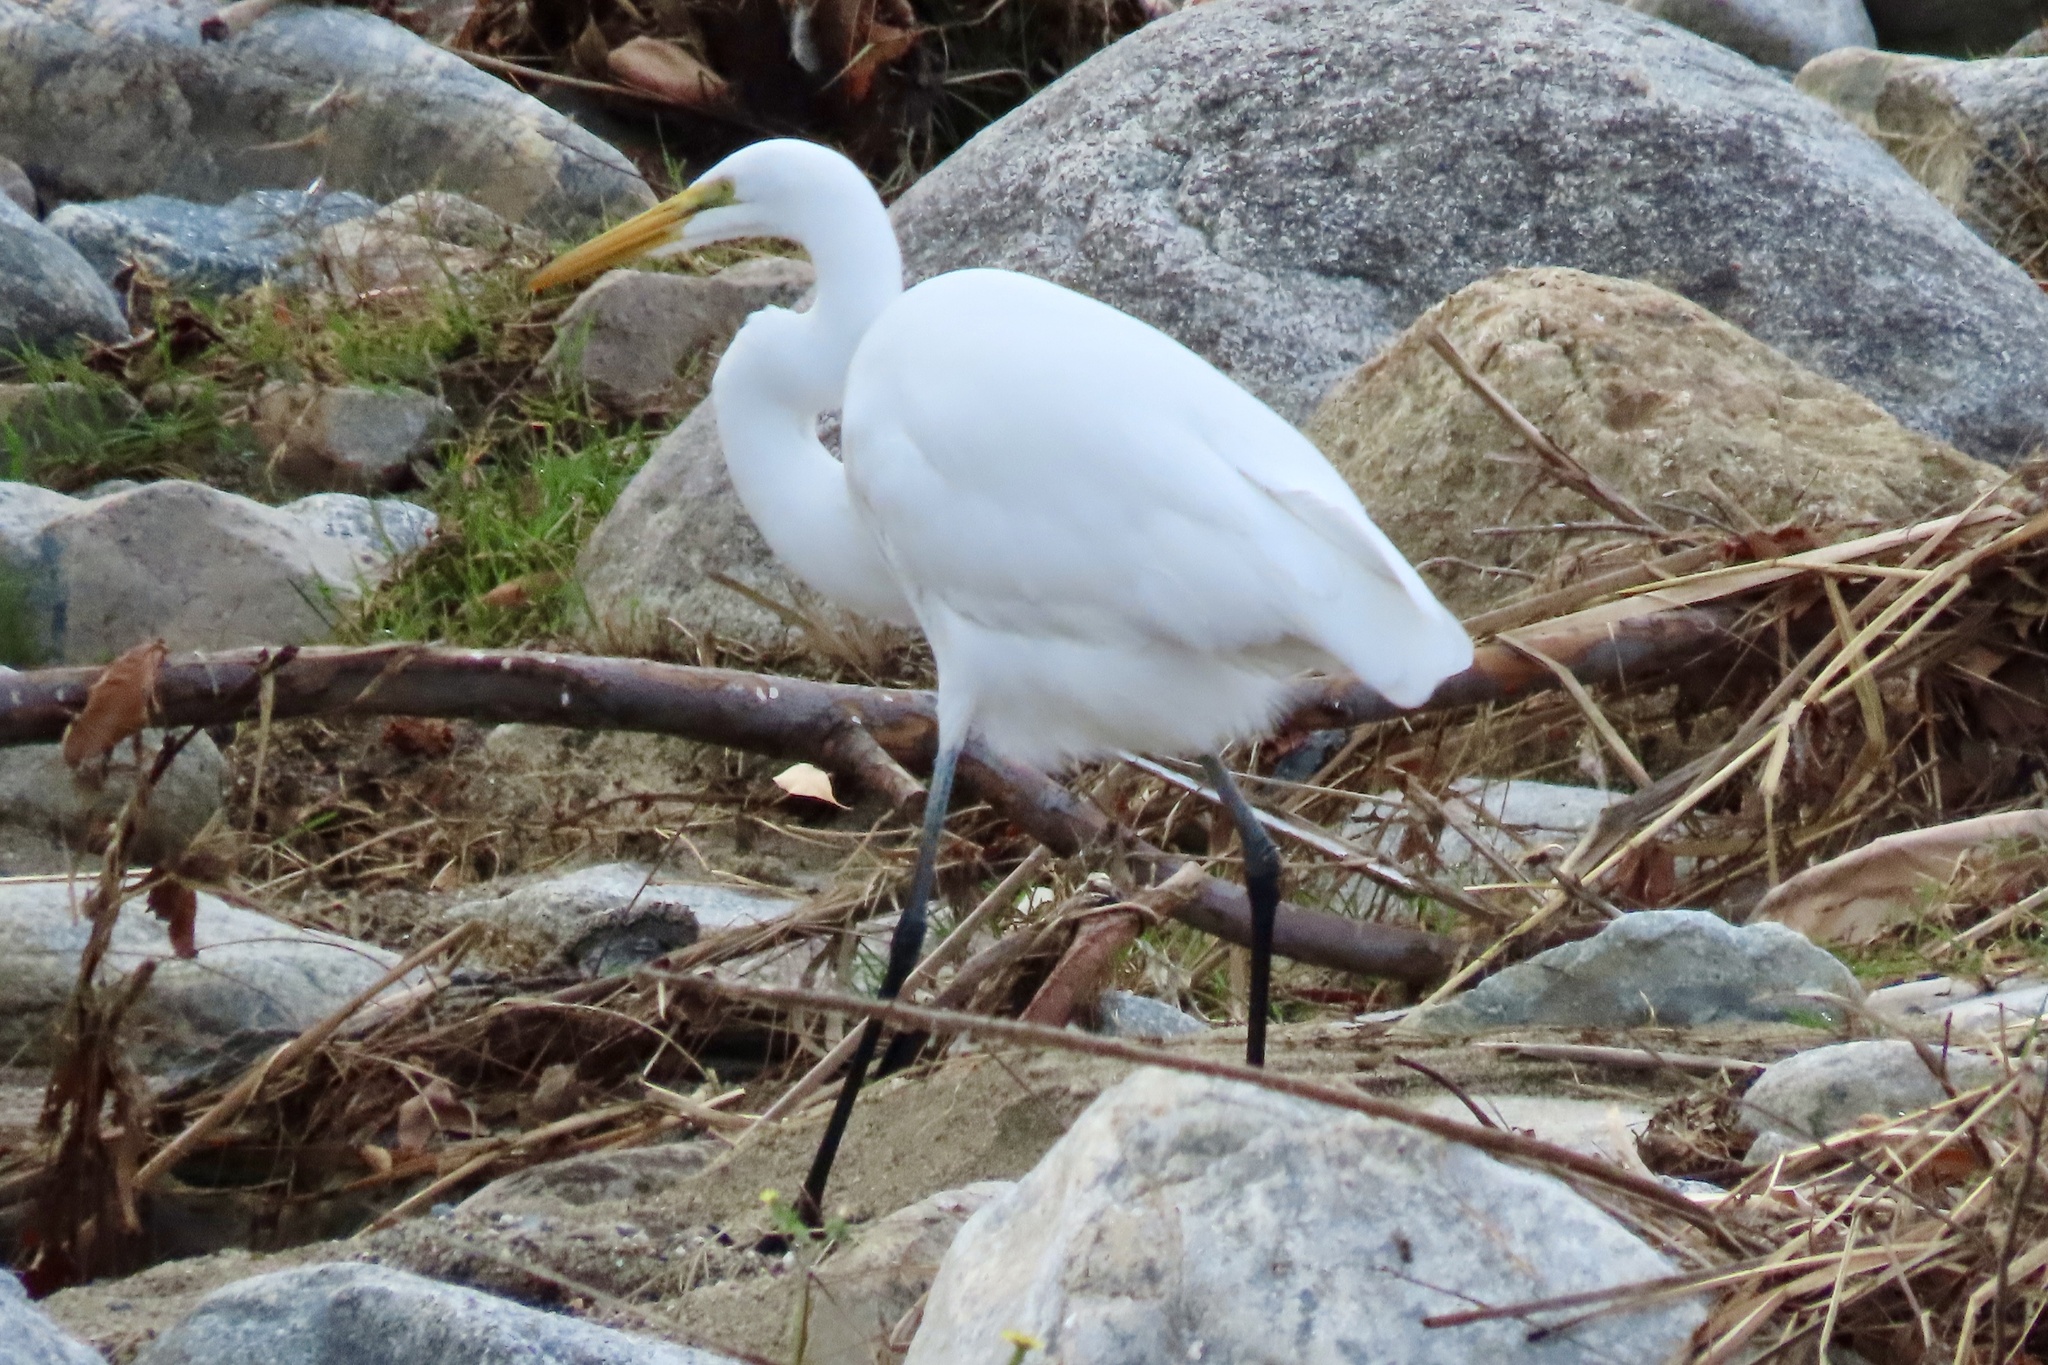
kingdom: Animalia
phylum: Chordata
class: Aves
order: Pelecaniformes
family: Ardeidae
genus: Ardea
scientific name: Ardea alba
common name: Great egret
